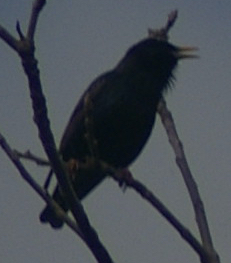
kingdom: Animalia
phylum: Chordata
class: Aves
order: Passeriformes
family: Sturnidae
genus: Sturnus
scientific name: Sturnus vulgaris
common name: Common starling
